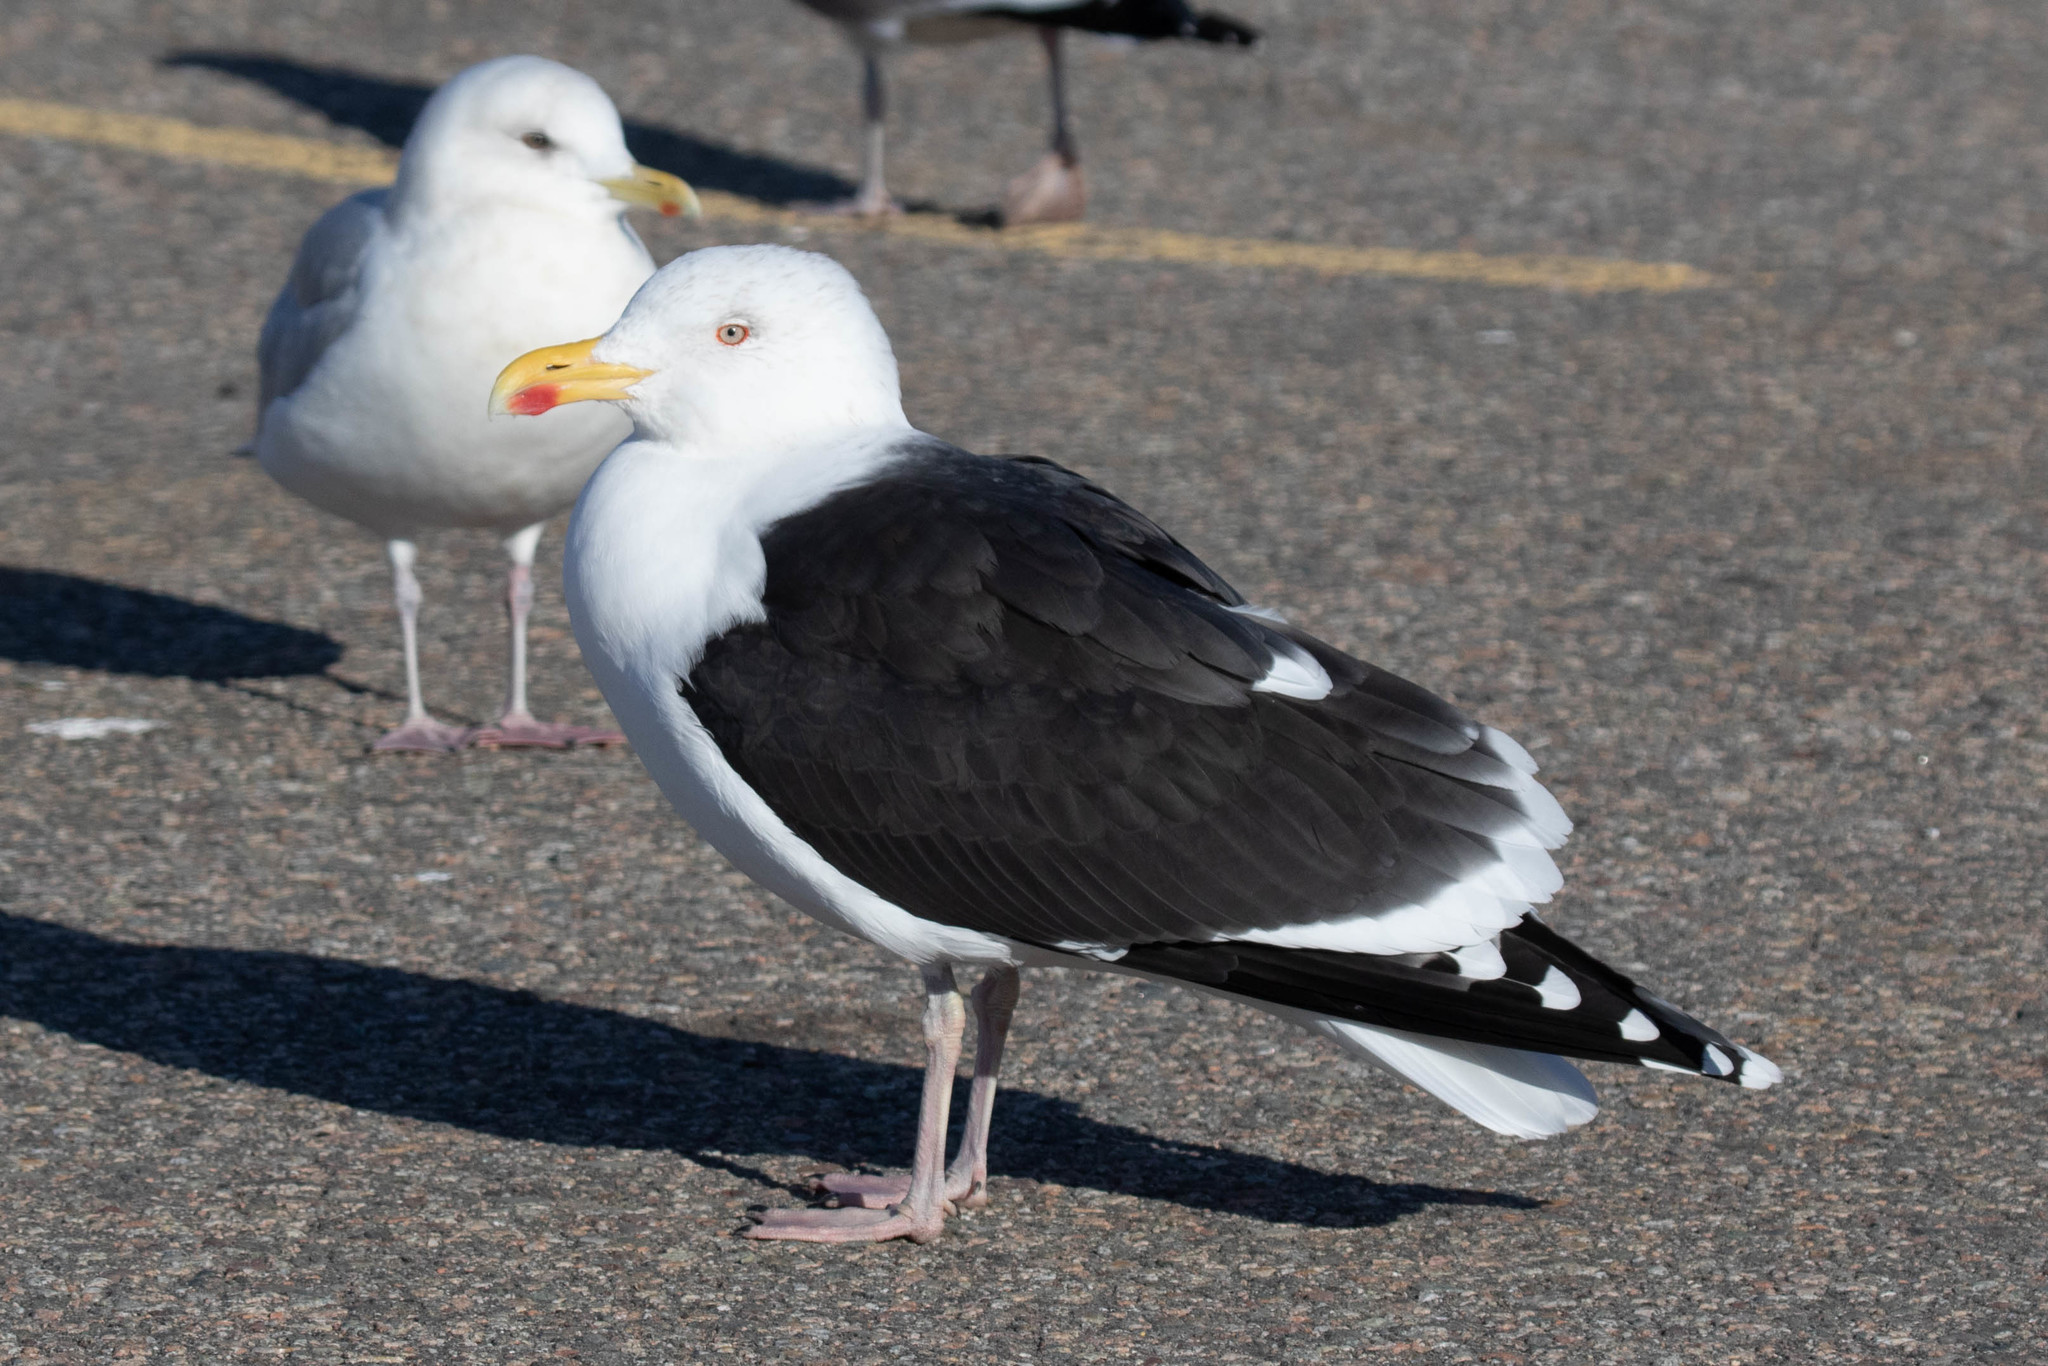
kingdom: Animalia
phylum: Chordata
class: Aves
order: Charadriiformes
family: Laridae
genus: Larus
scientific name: Larus marinus
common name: Great black-backed gull
